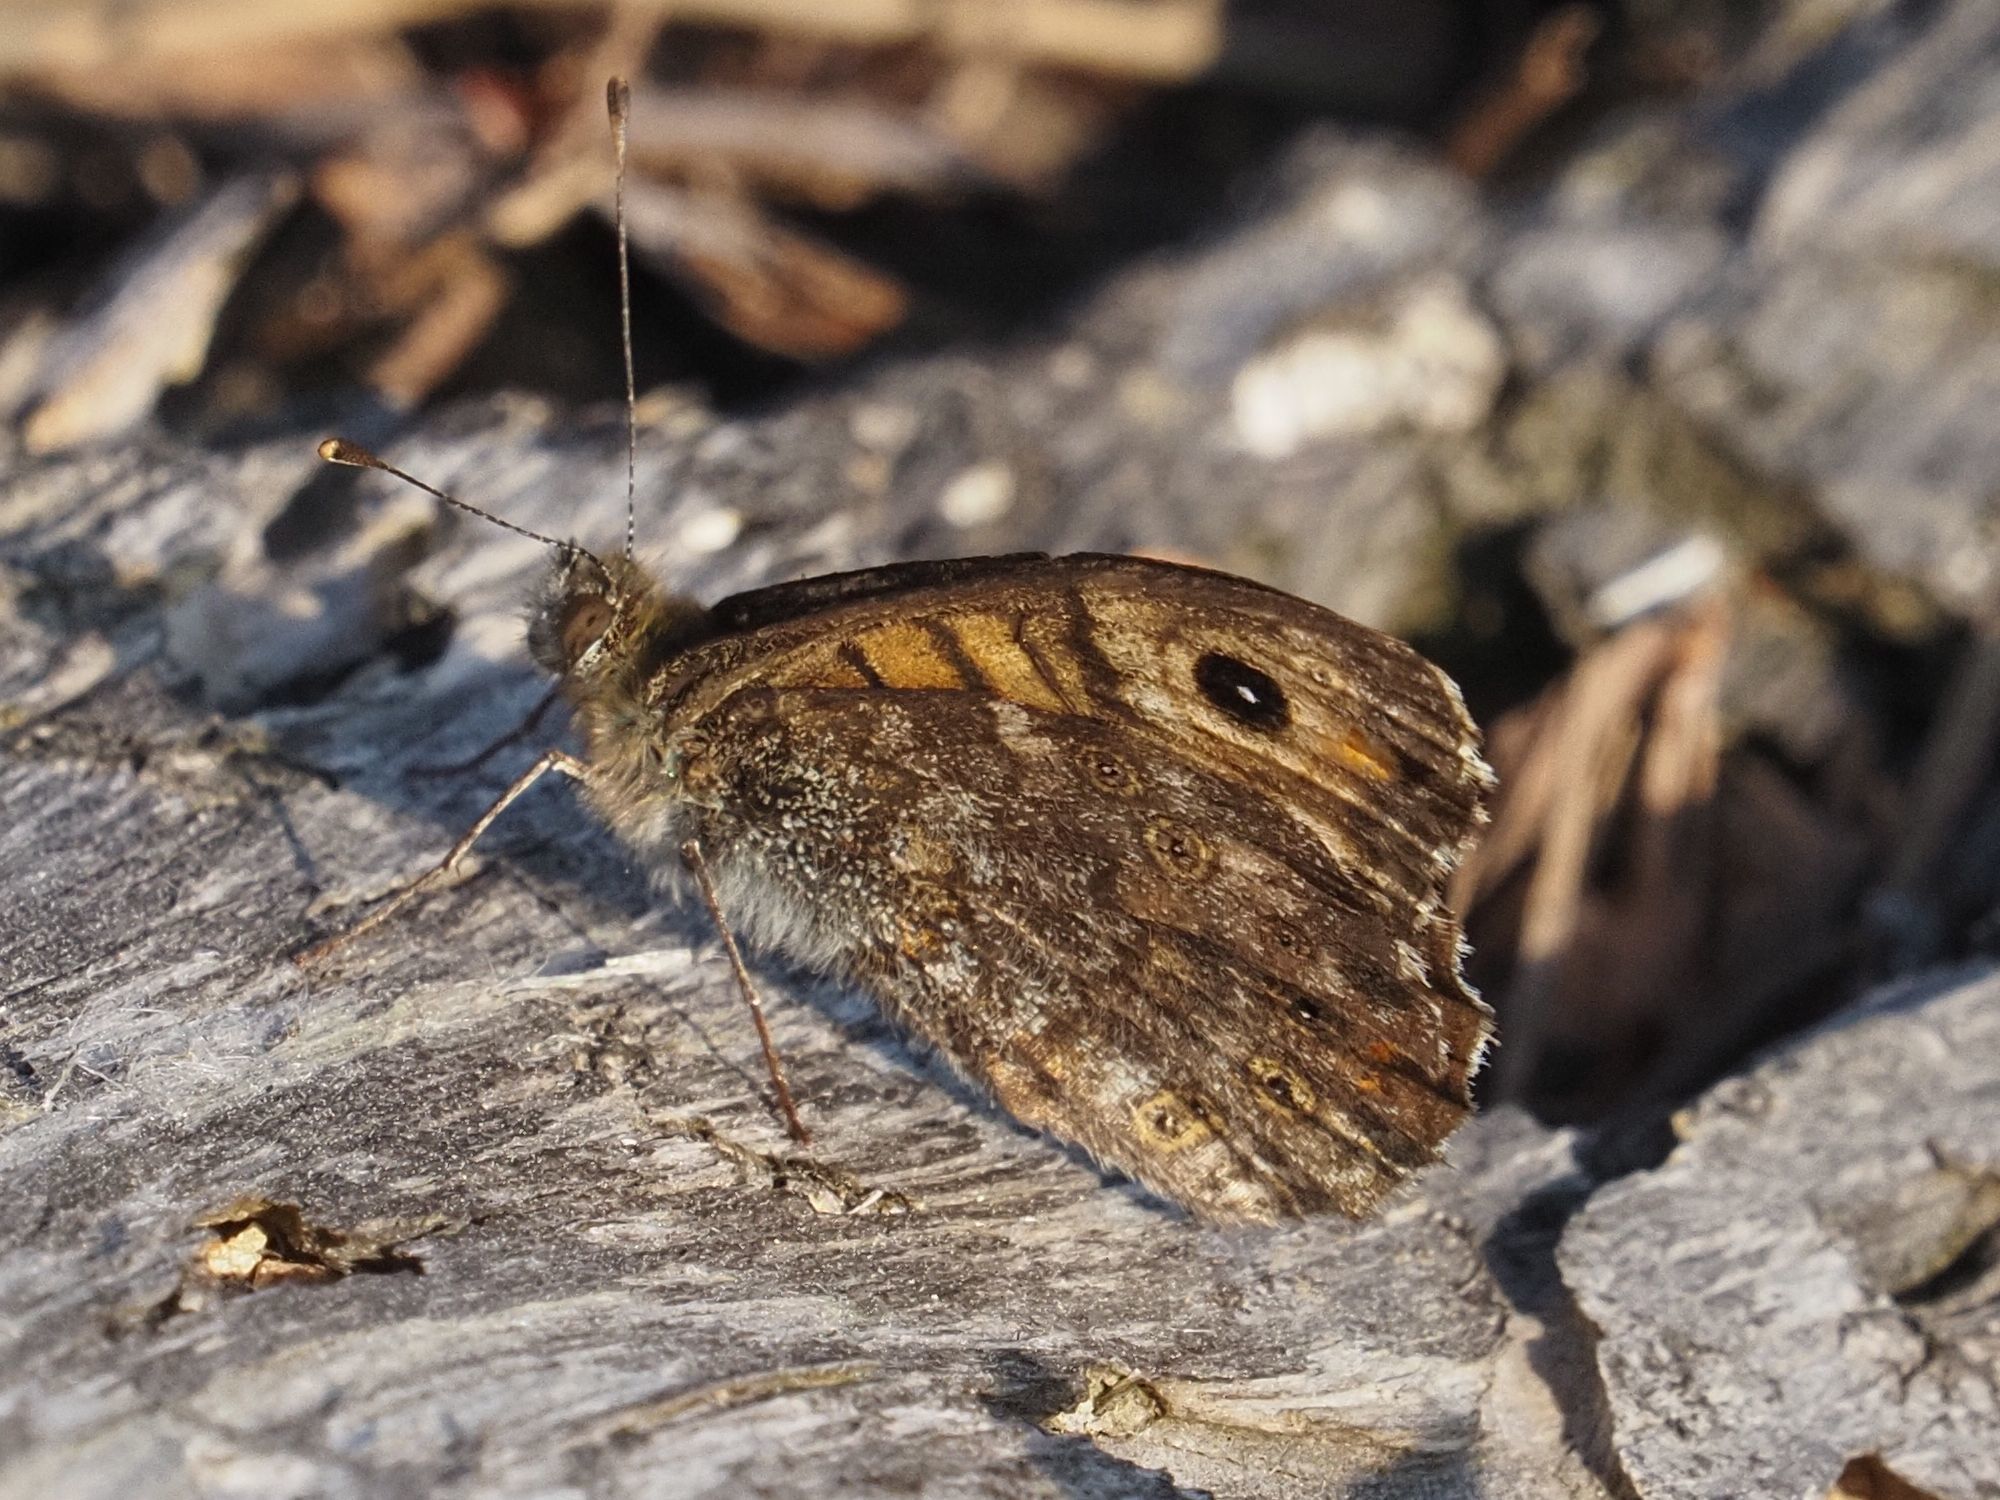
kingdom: Animalia
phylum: Arthropoda
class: Insecta
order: Lepidoptera
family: Nymphalidae
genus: Pararge
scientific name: Pararge Lasiommata megera
